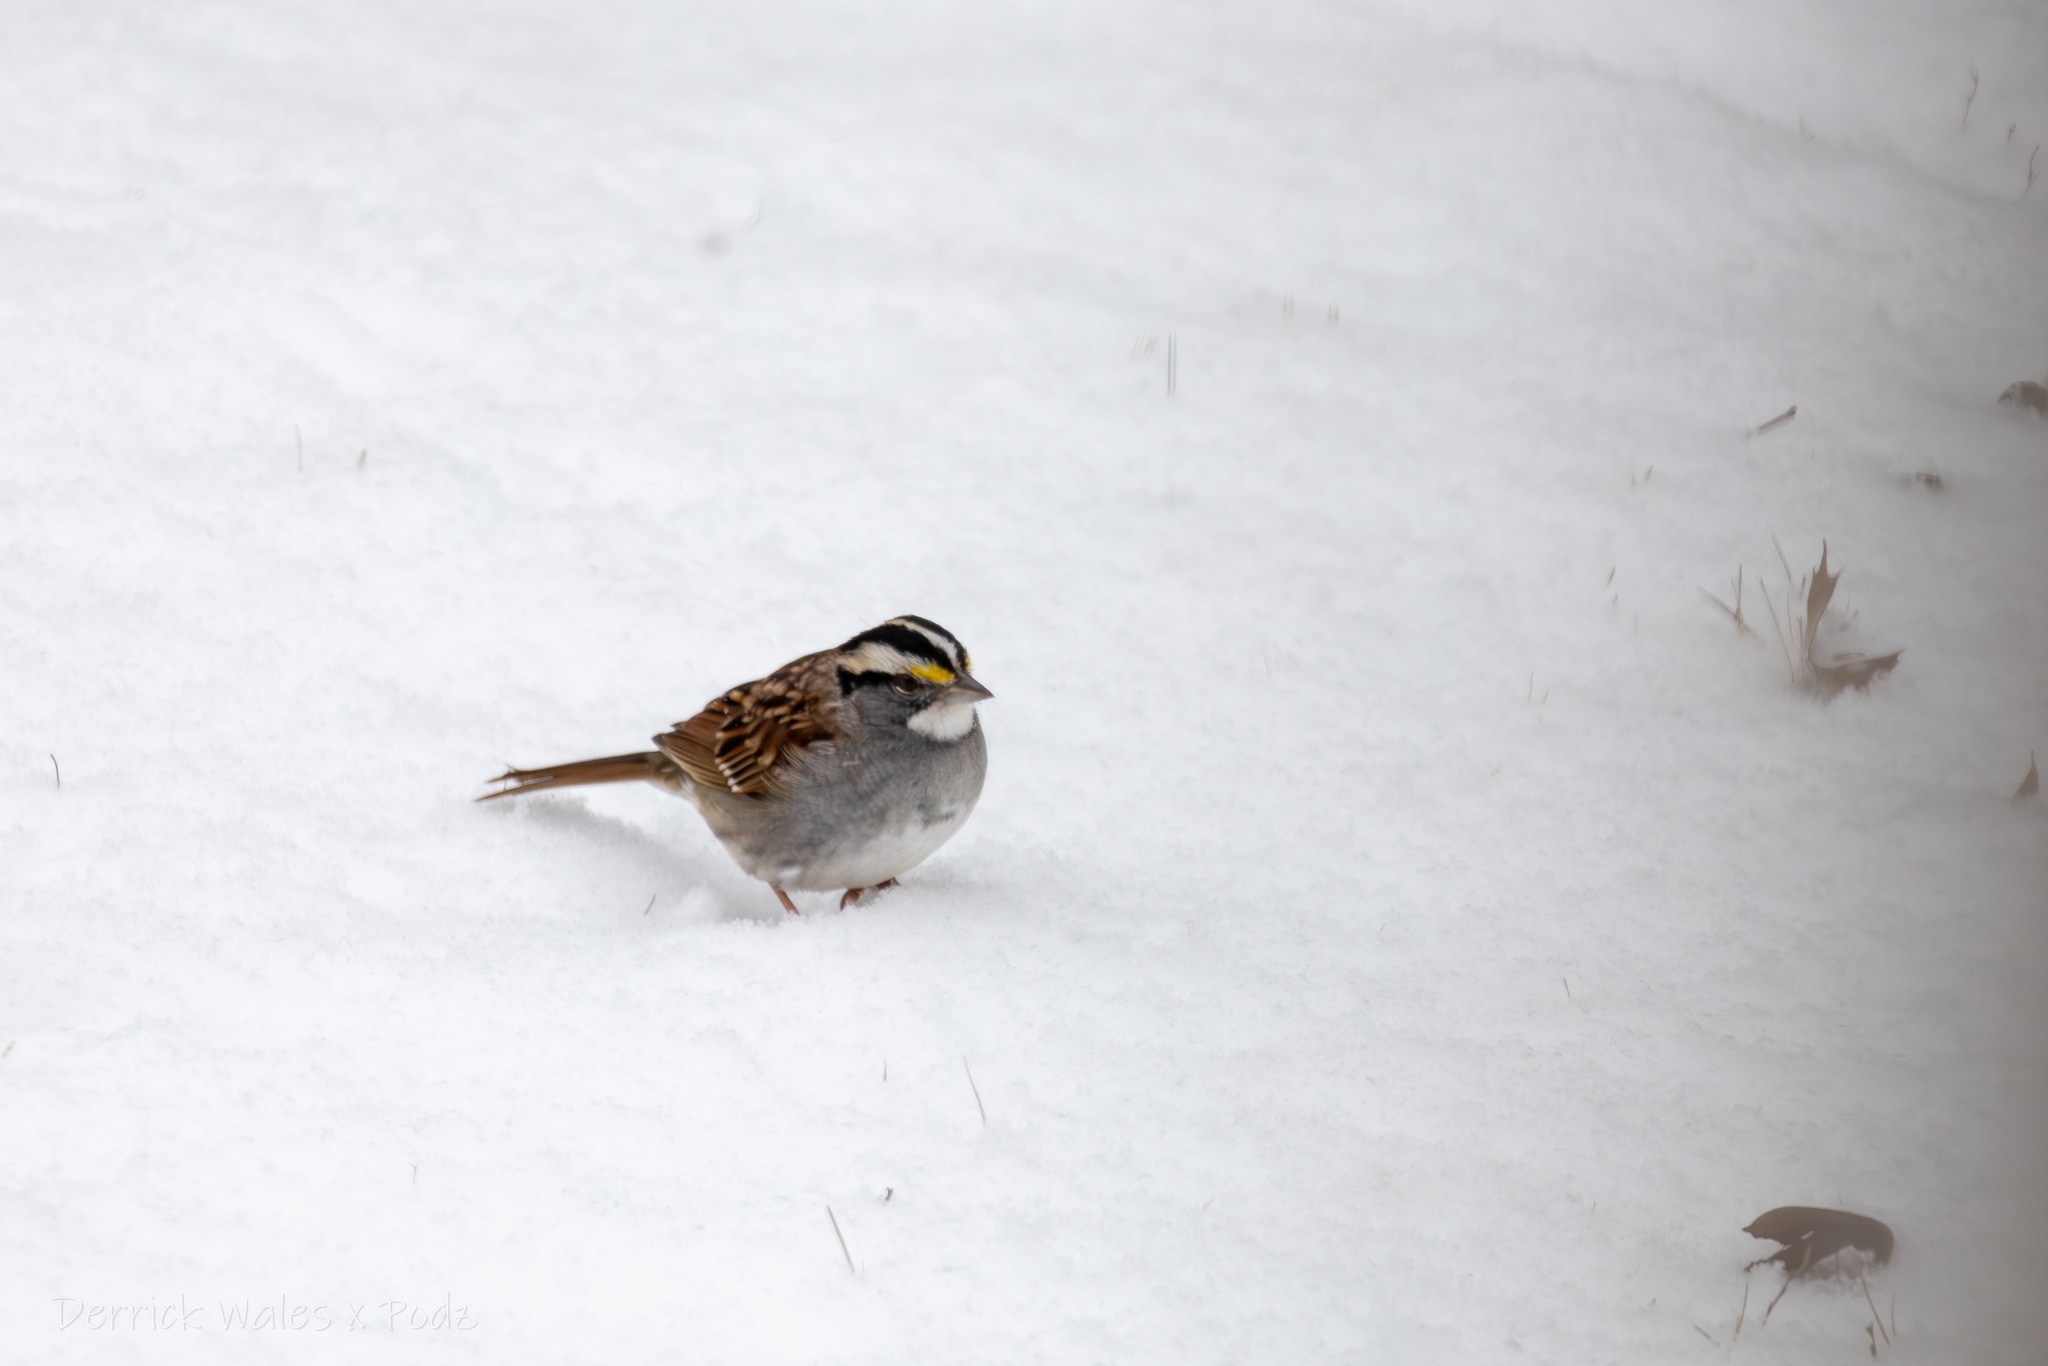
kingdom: Animalia
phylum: Chordata
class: Aves
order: Passeriformes
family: Passerellidae
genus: Zonotrichia
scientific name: Zonotrichia albicollis
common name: White-throated sparrow
